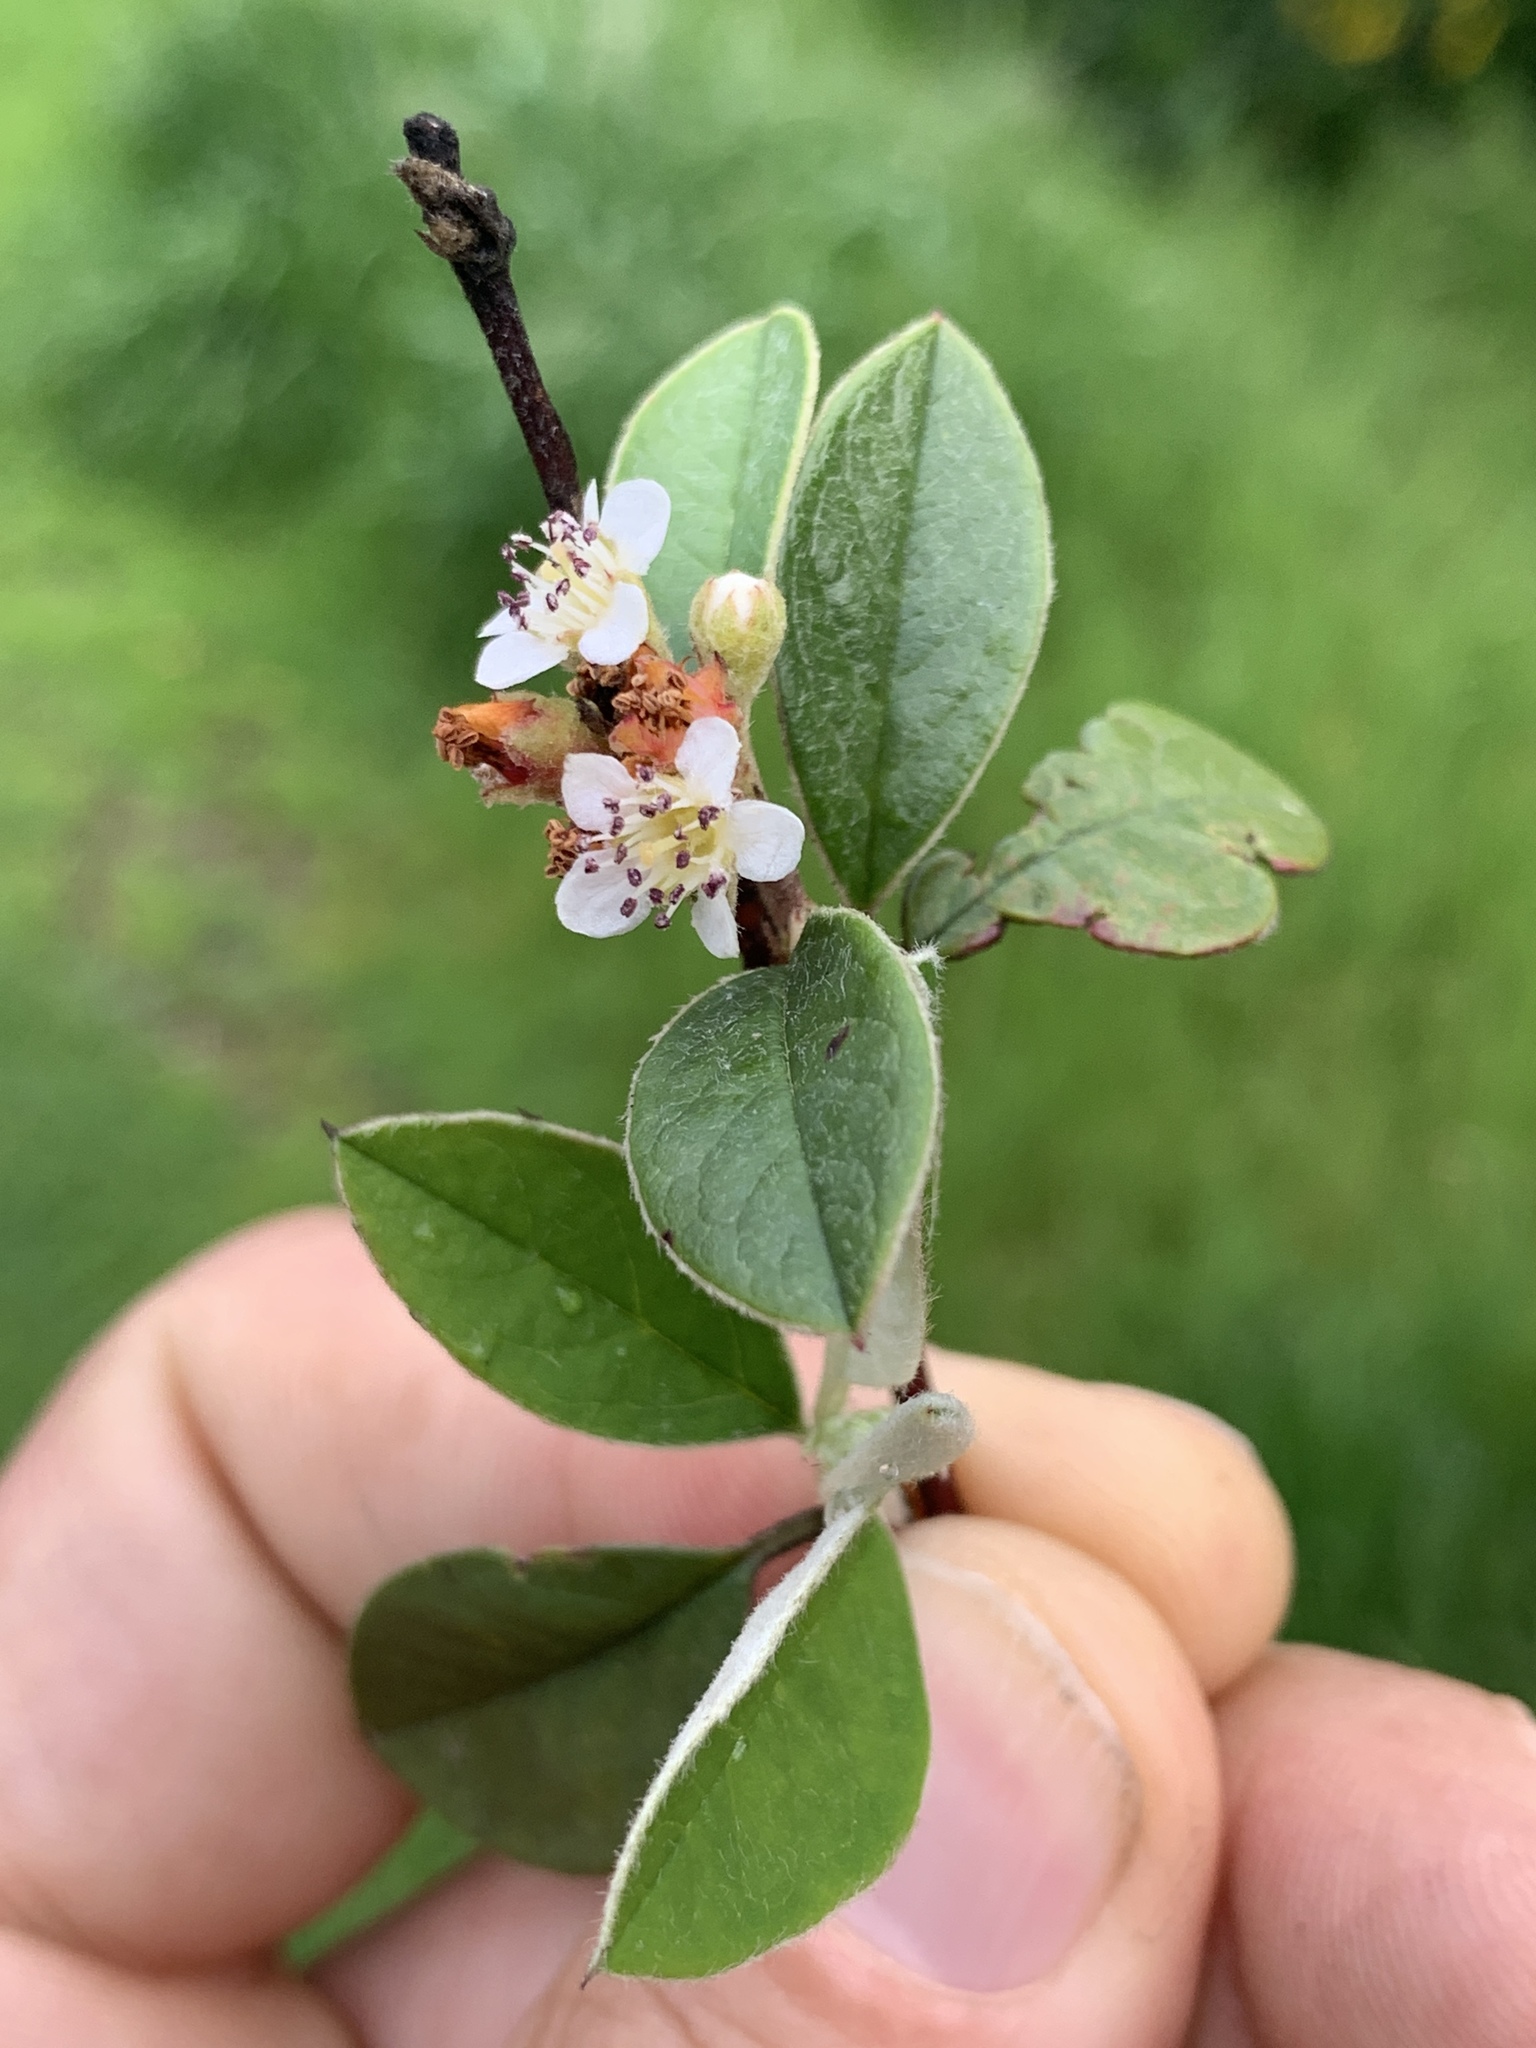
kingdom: Plantae
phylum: Tracheophyta
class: Magnoliopsida
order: Rosales
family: Rosaceae
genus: Cotoneaster
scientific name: Cotoneaster pannosus
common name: Silverleaf cotoneaster
